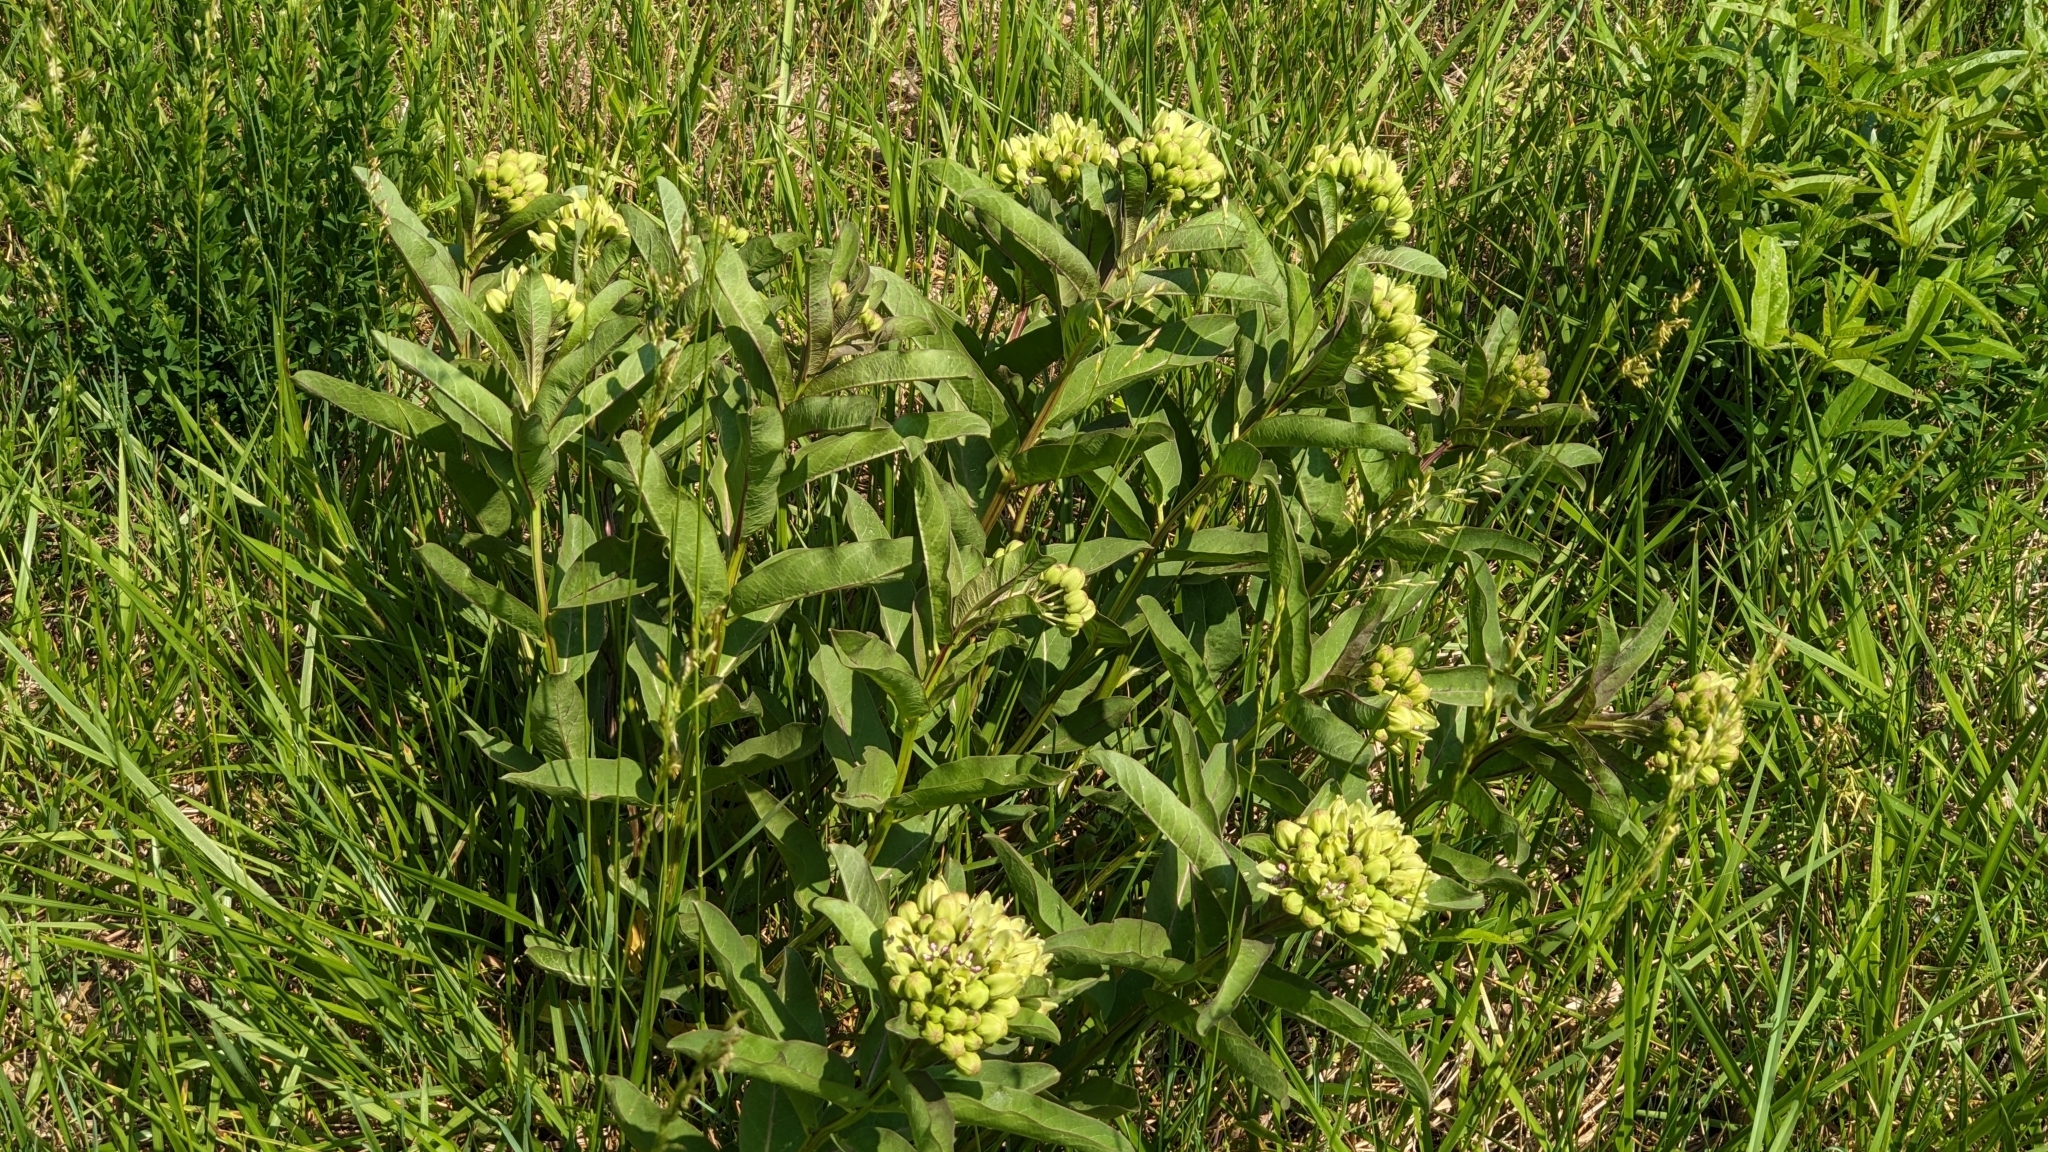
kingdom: Plantae
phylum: Tracheophyta
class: Magnoliopsida
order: Gentianales
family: Apocynaceae
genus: Asclepias
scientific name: Asclepias viridis
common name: Antelope-horns
